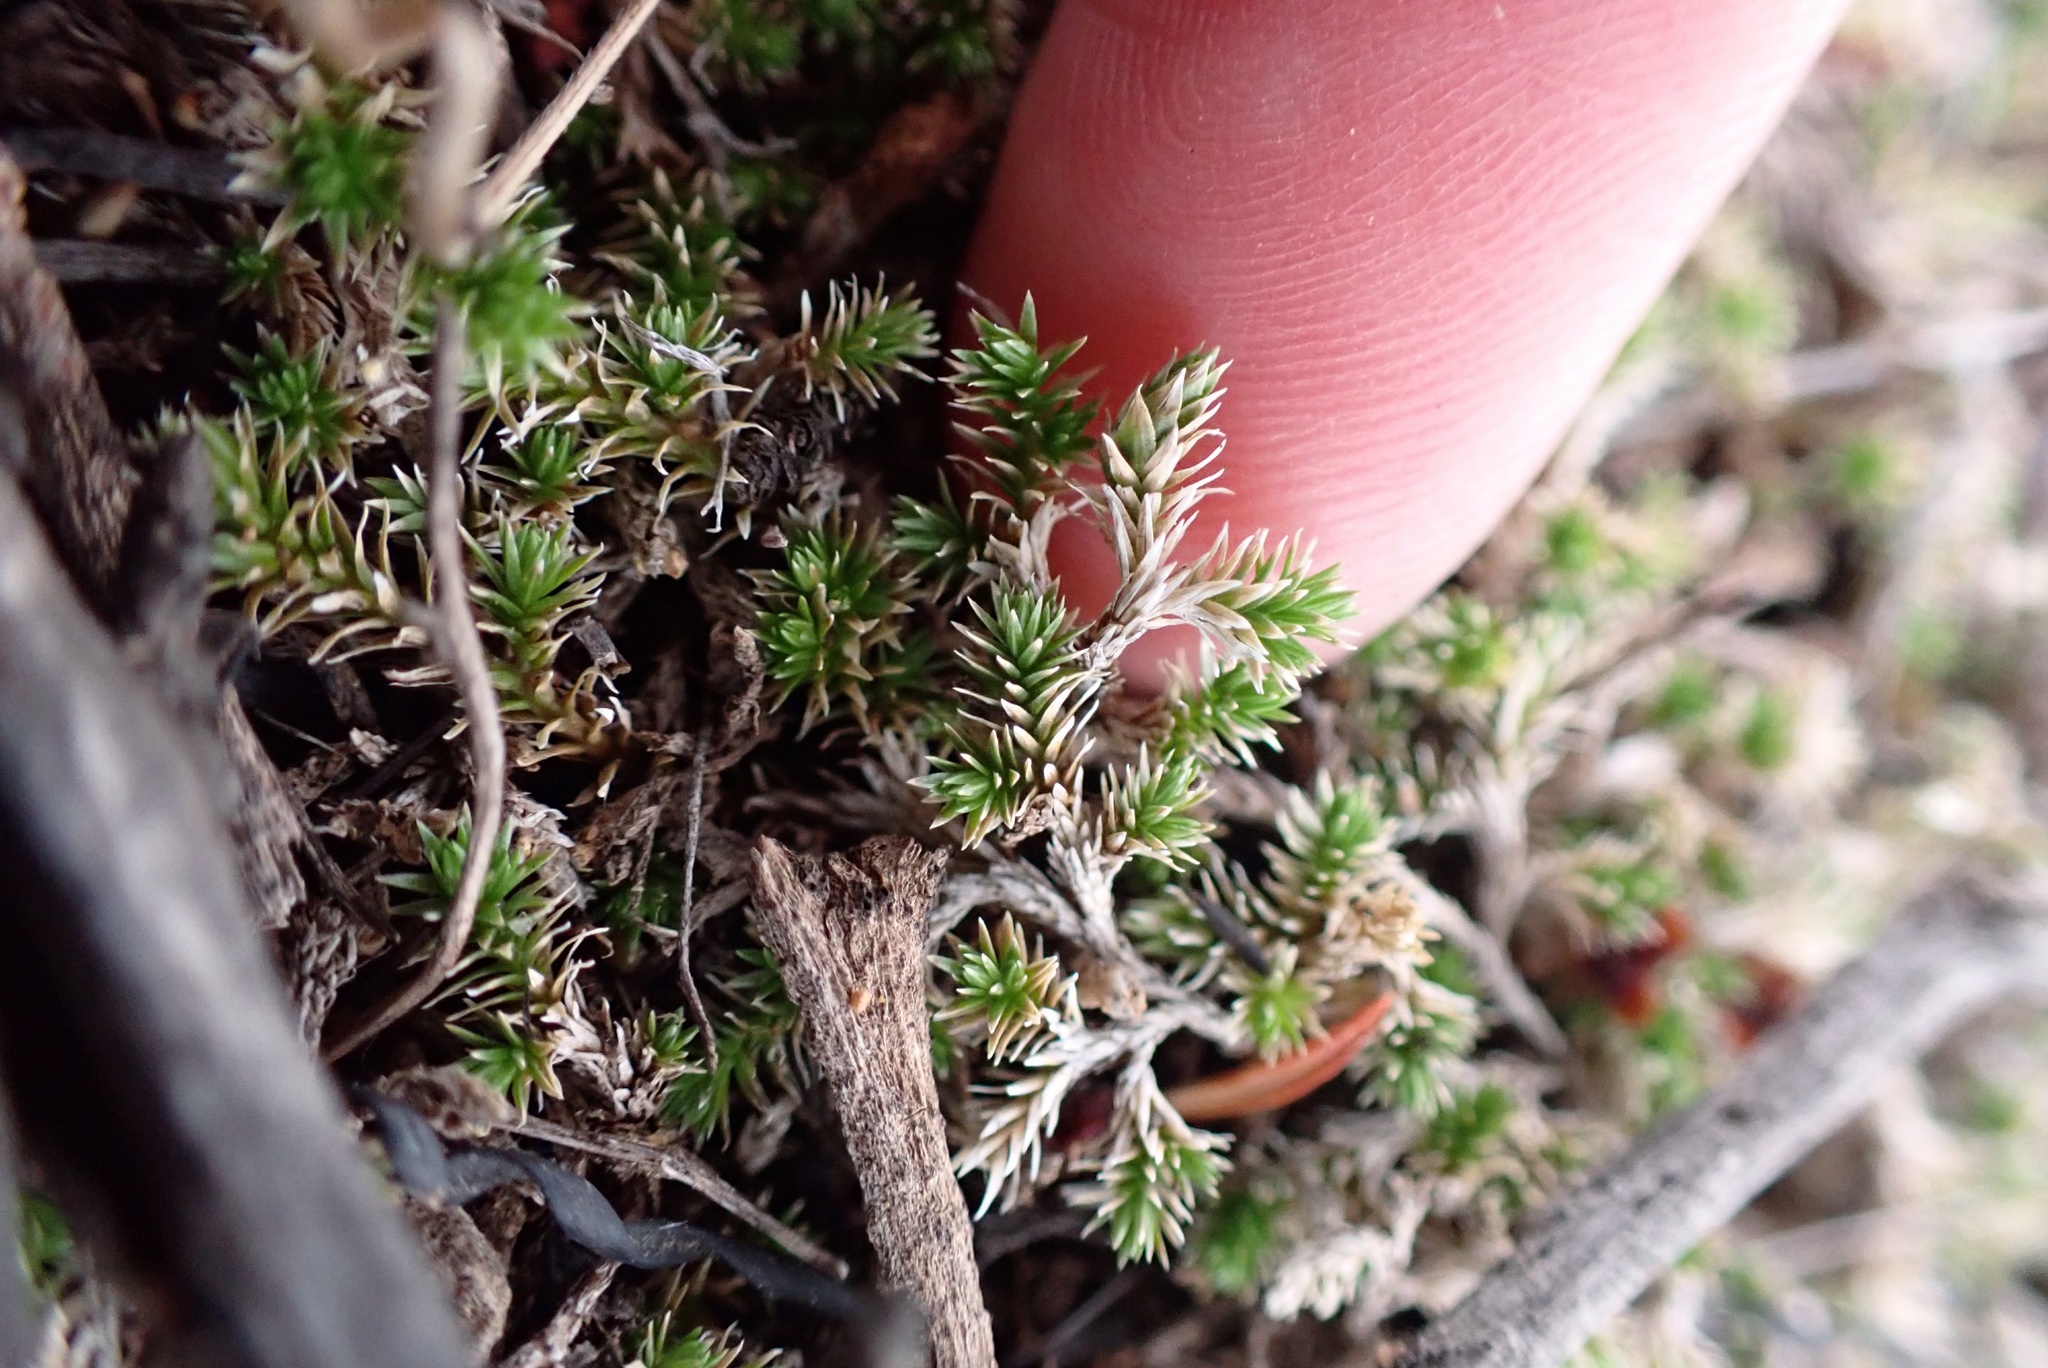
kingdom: Plantae
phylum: Tracheophyta
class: Lycopodiopsida
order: Selaginellales
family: Selaginellaceae
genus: Selaginella
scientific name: Selaginella cinerascens
